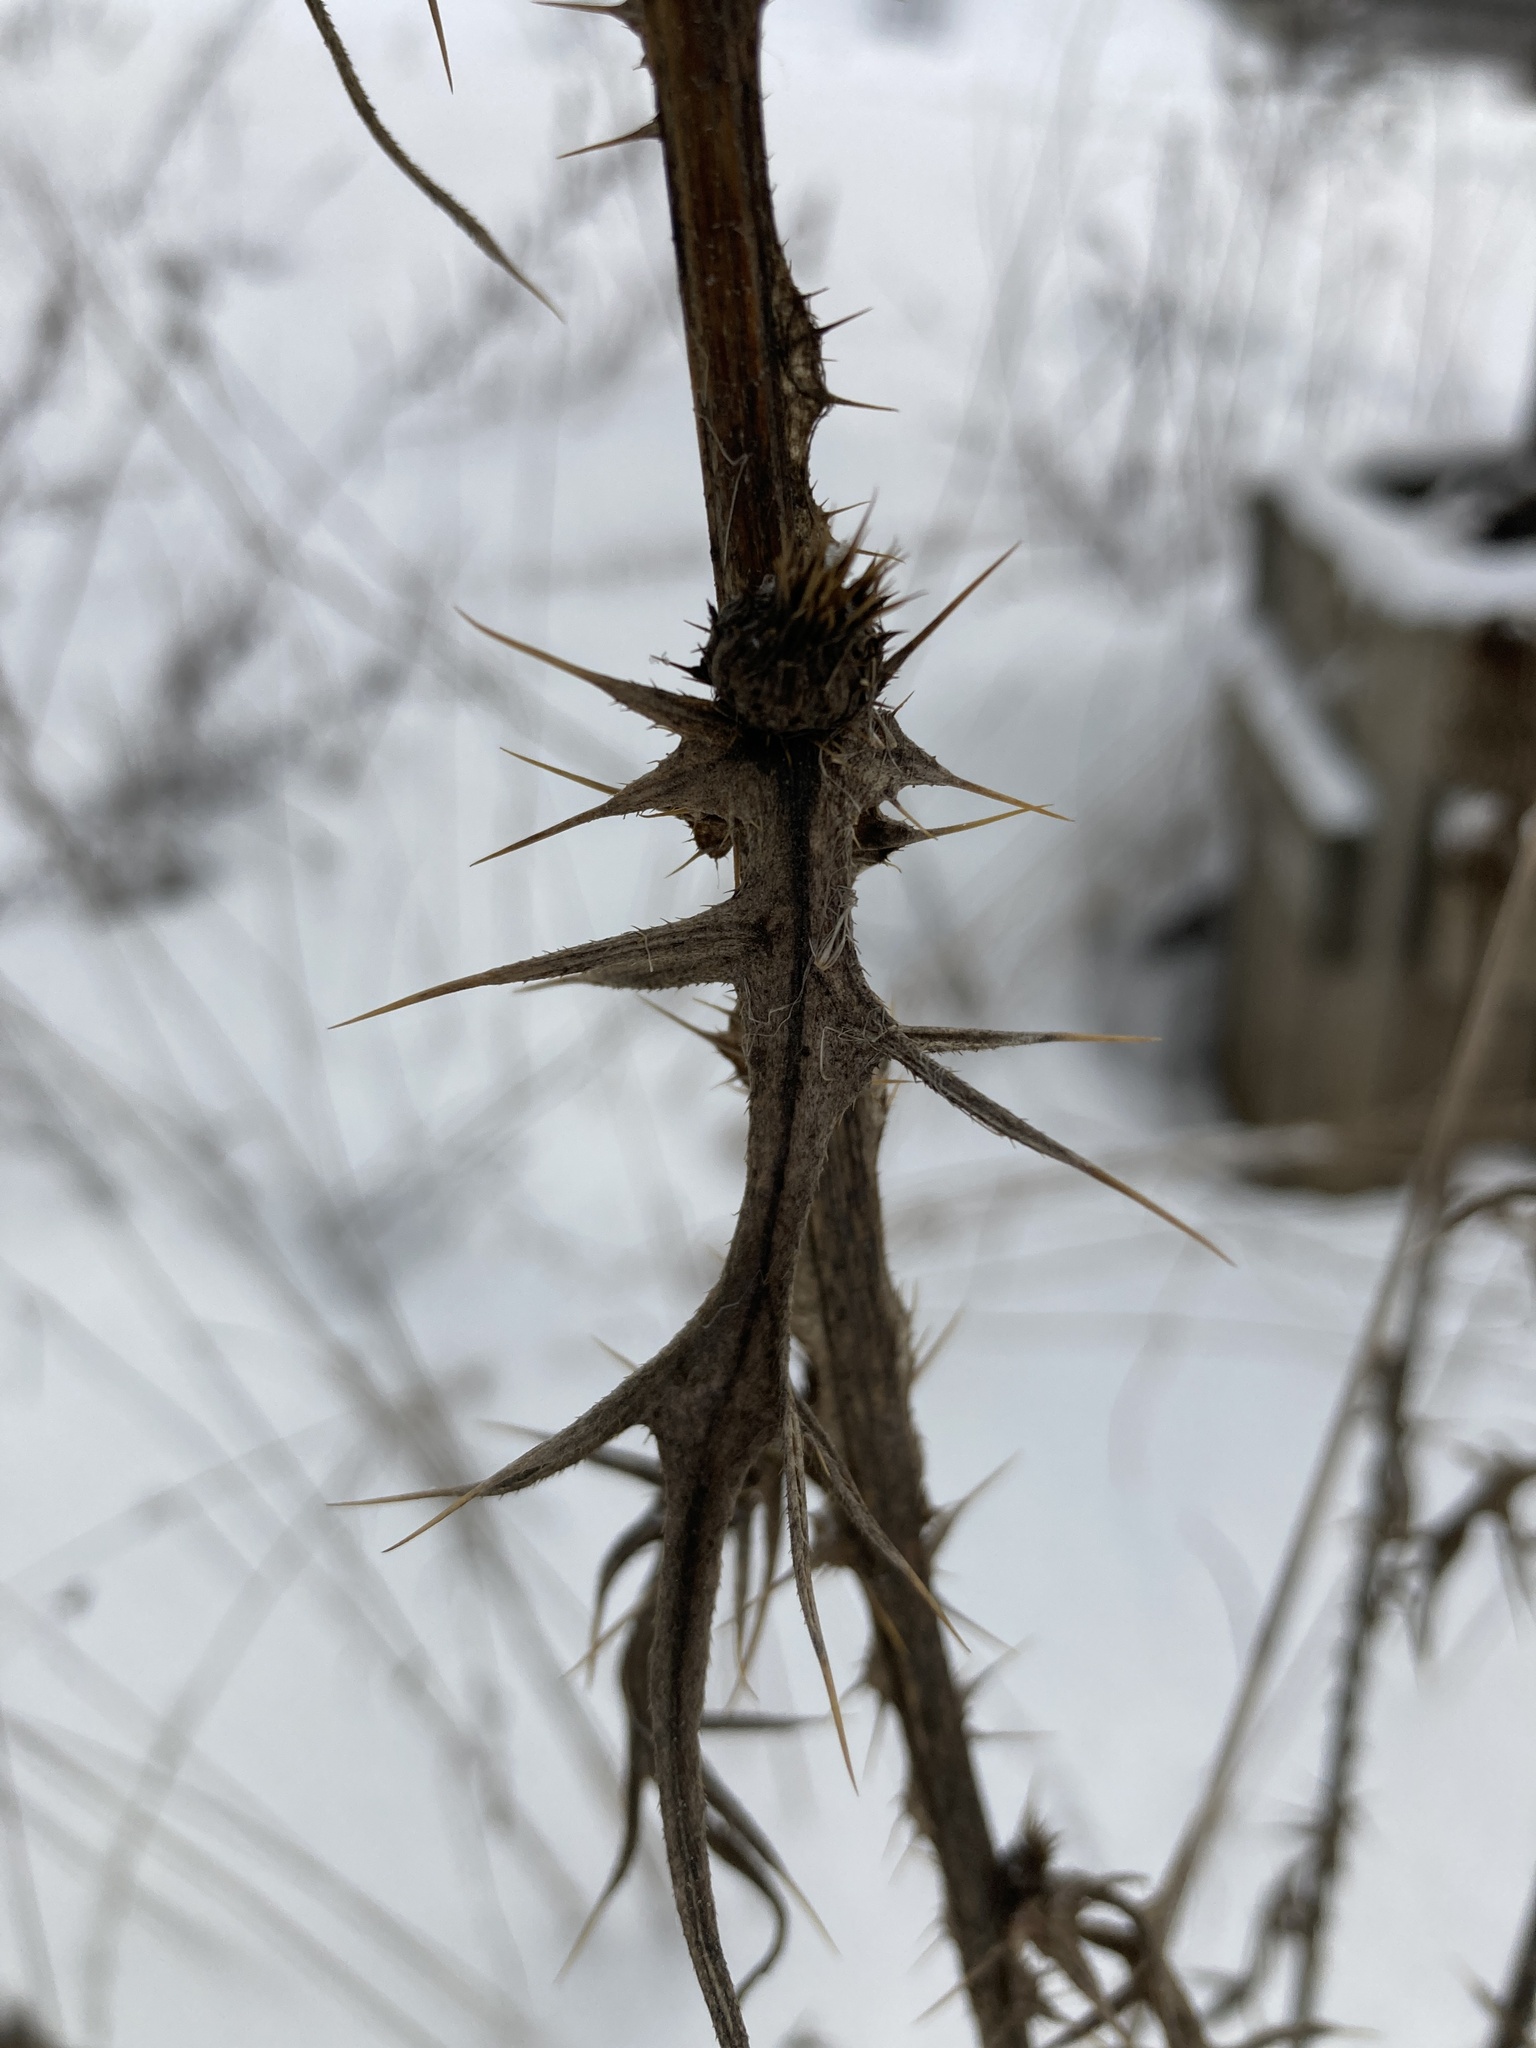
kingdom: Plantae
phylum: Tracheophyta
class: Magnoliopsida
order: Asterales
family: Asteraceae
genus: Cirsium
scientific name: Cirsium vulgare
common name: Bull thistle
